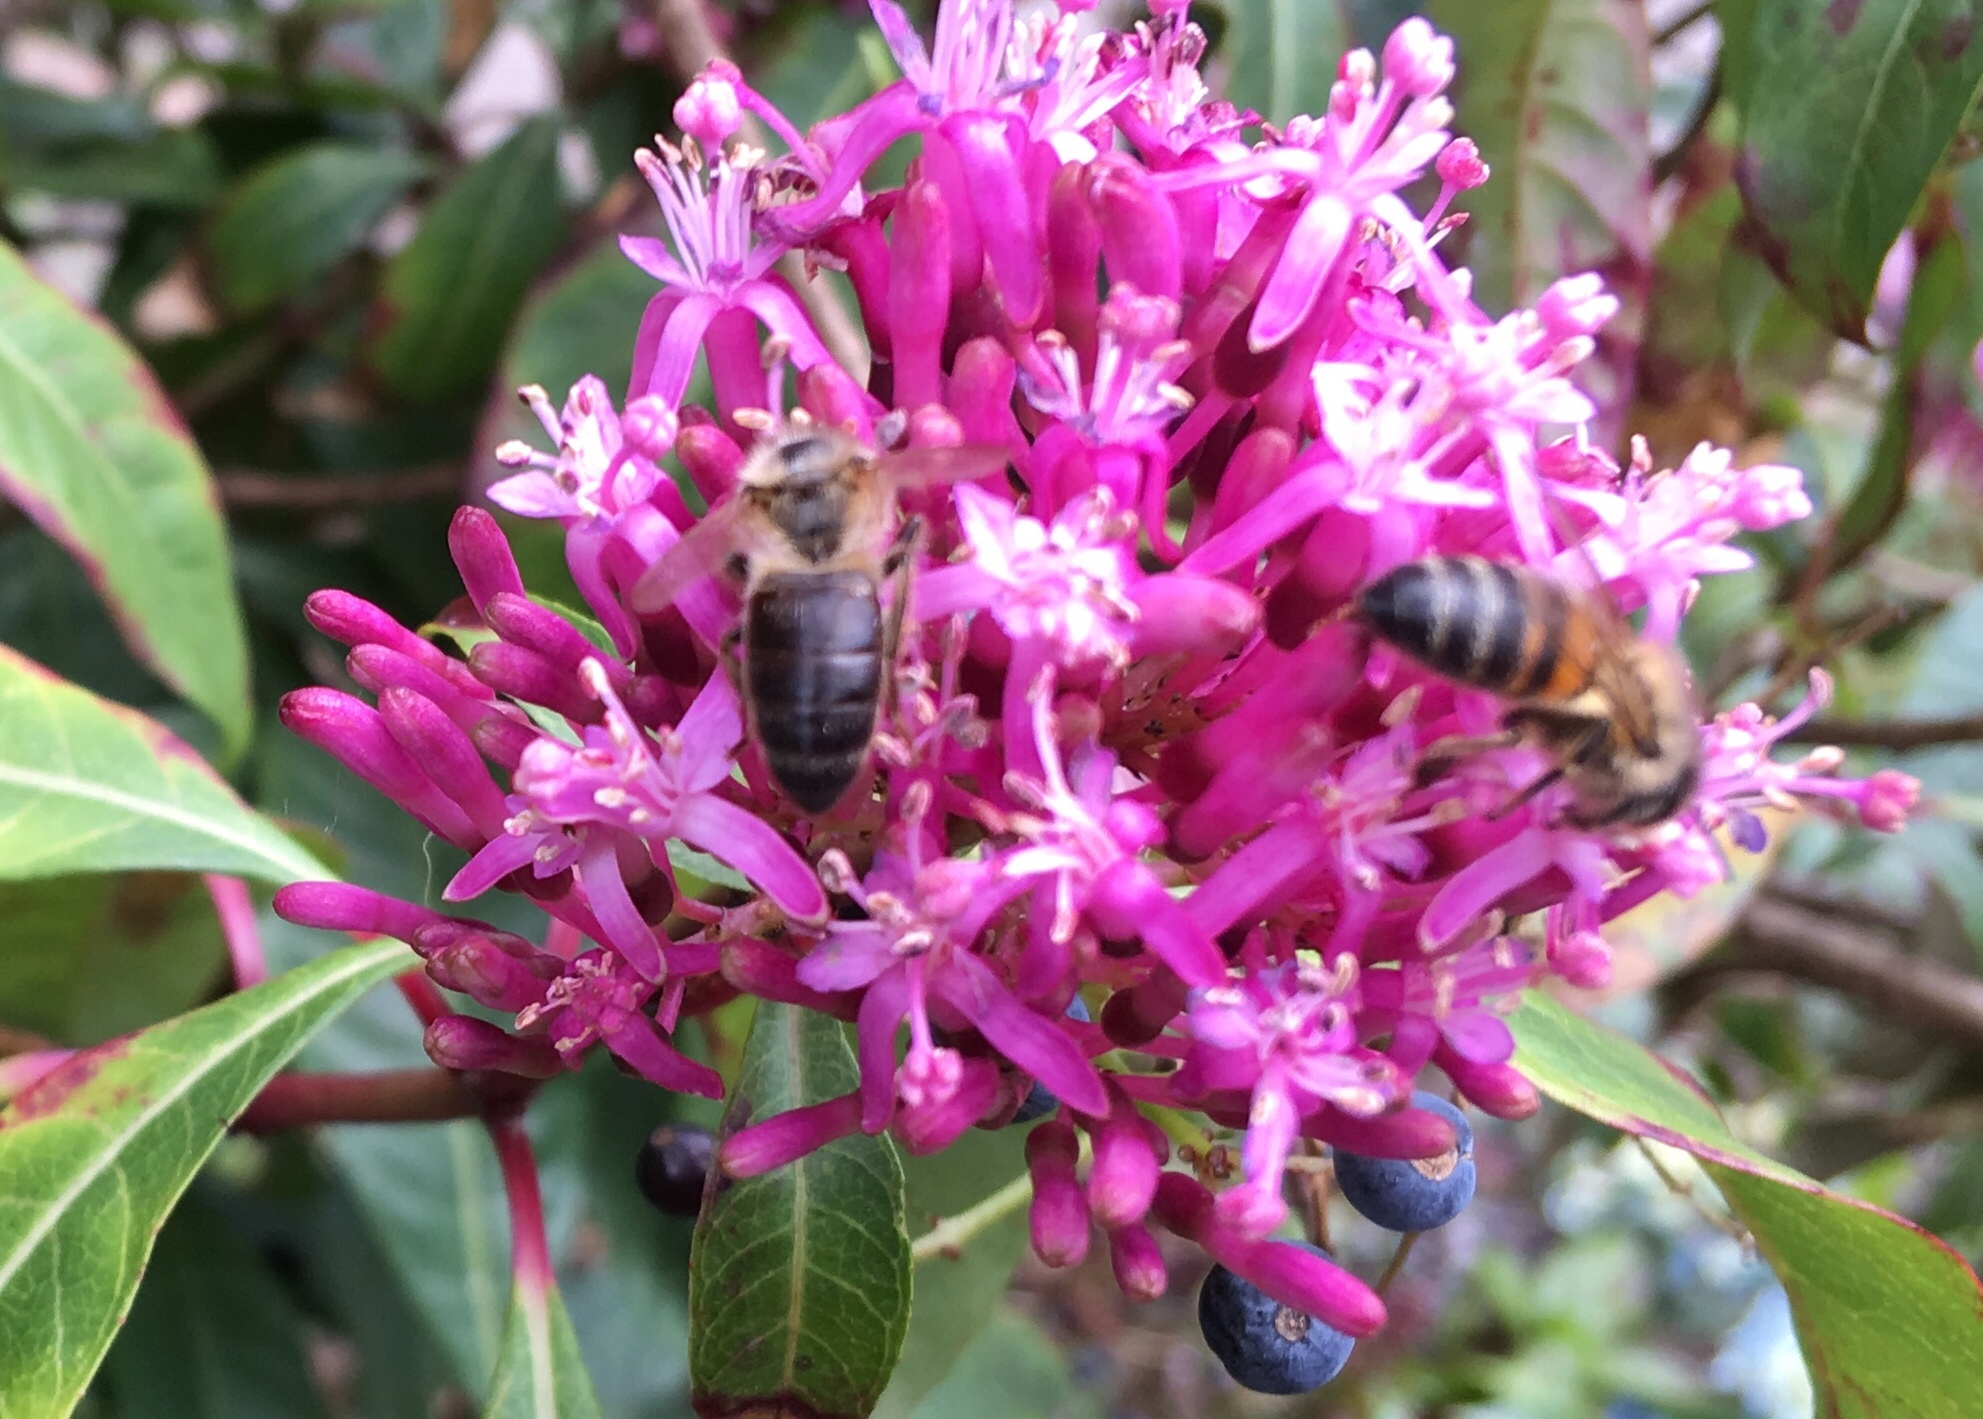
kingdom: Animalia
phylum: Arthropoda
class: Insecta
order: Hymenoptera
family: Apidae
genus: Apis
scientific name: Apis mellifera
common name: Honey bee
